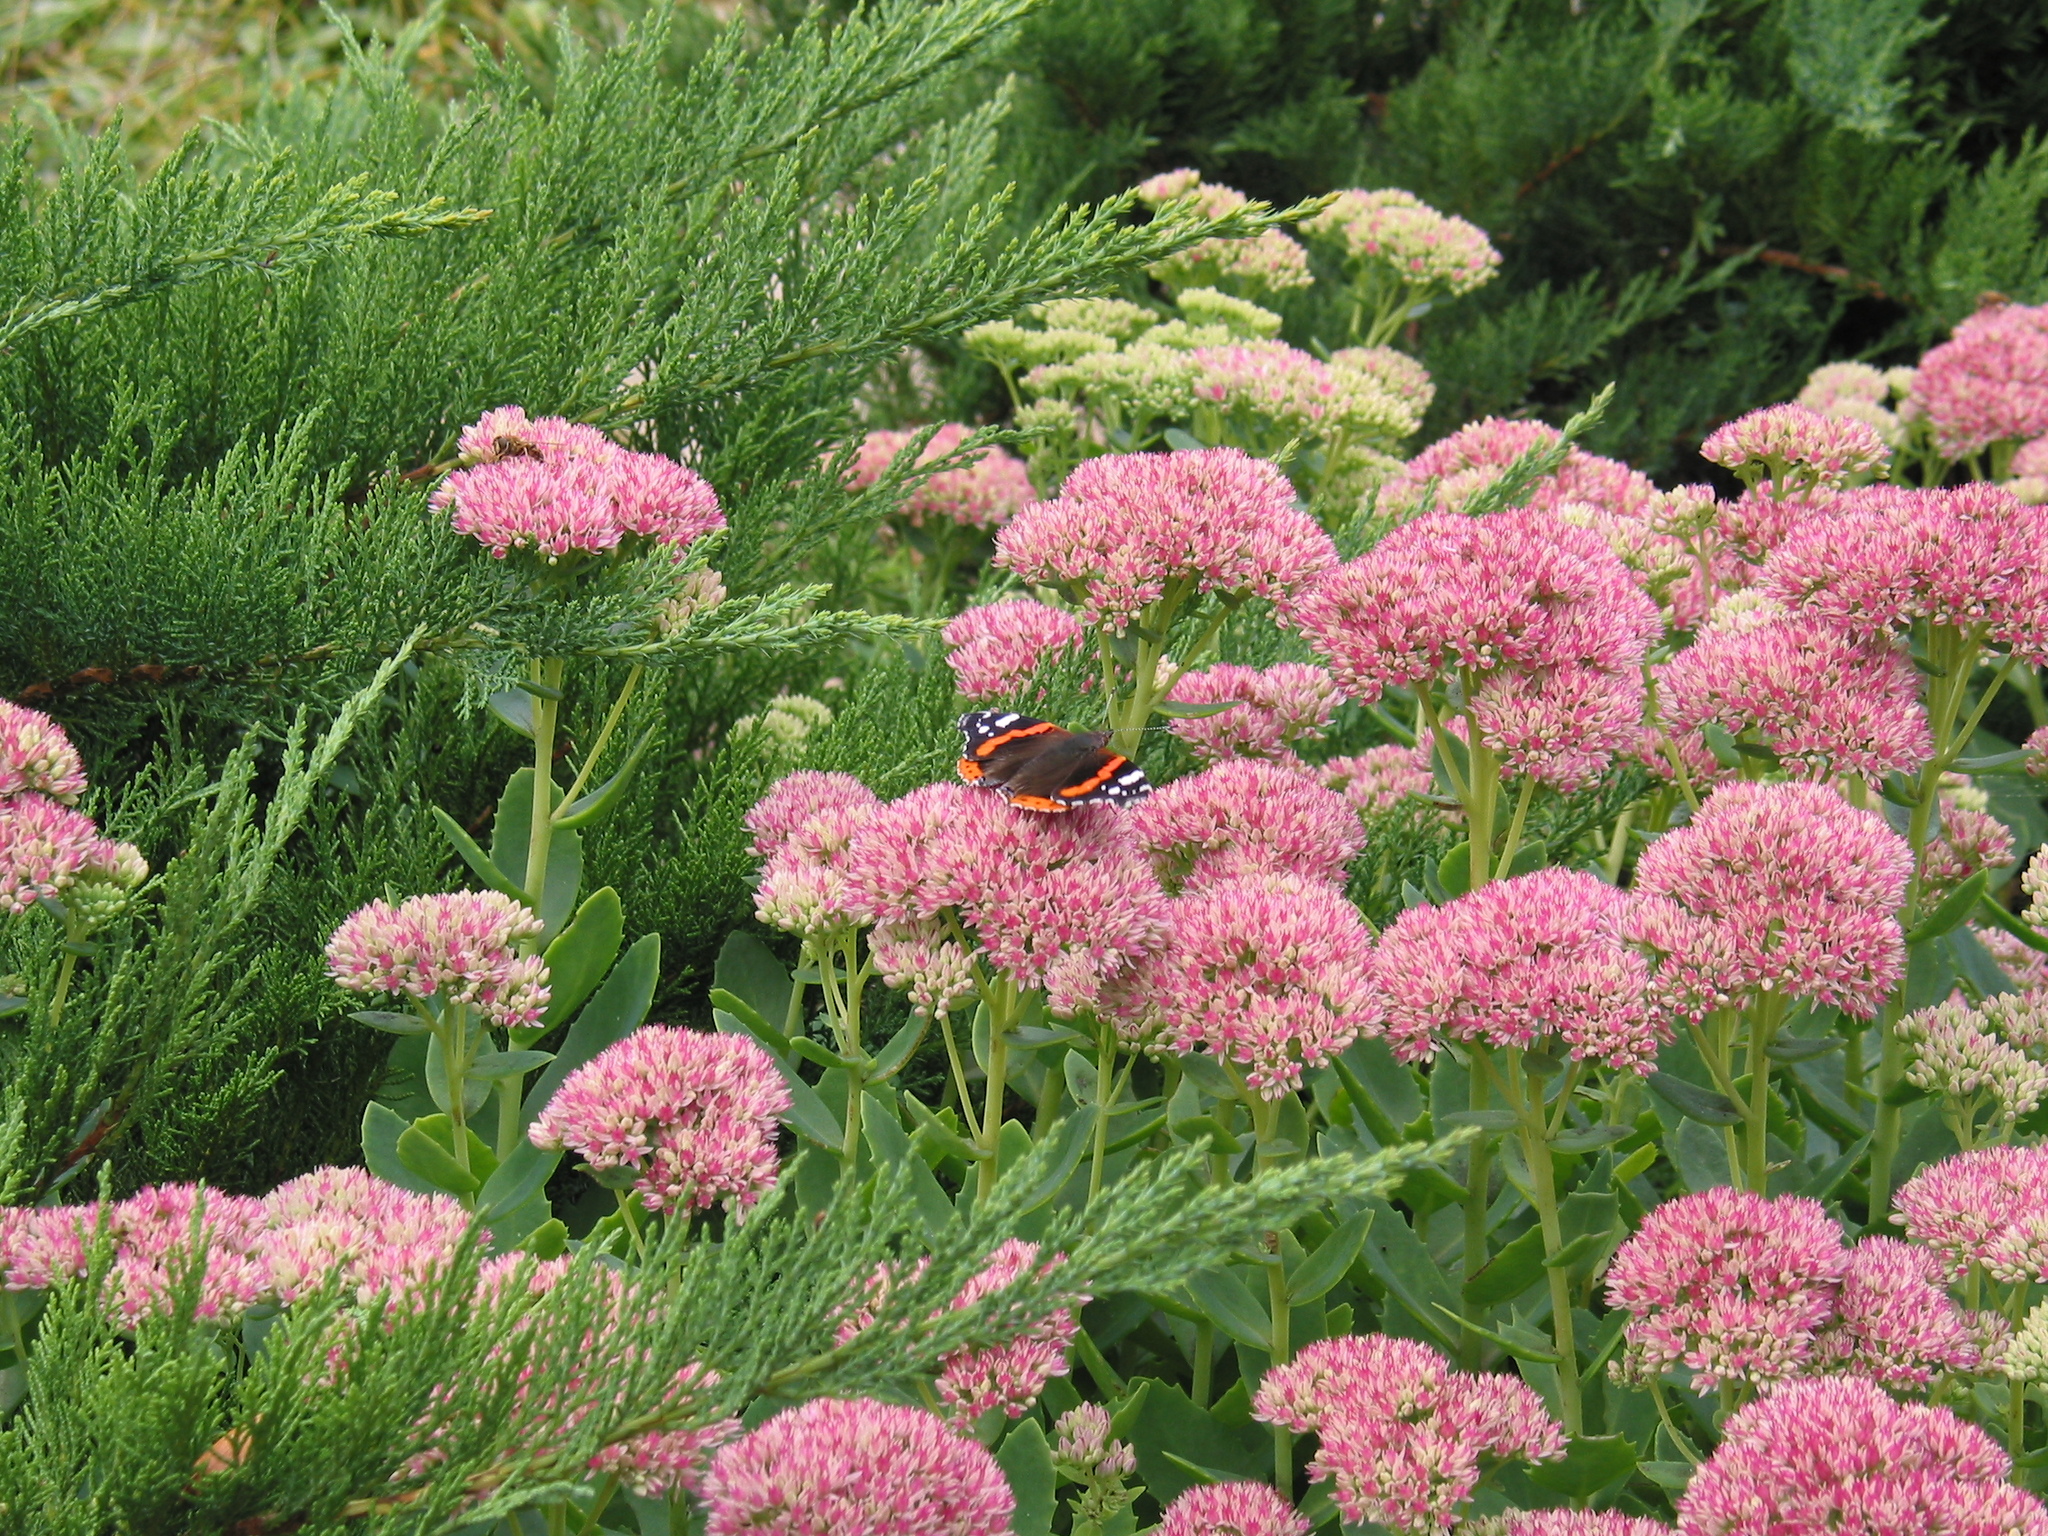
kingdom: Animalia
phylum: Arthropoda
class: Insecta
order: Lepidoptera
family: Nymphalidae
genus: Vanessa
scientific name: Vanessa atalanta
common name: Red admiral
